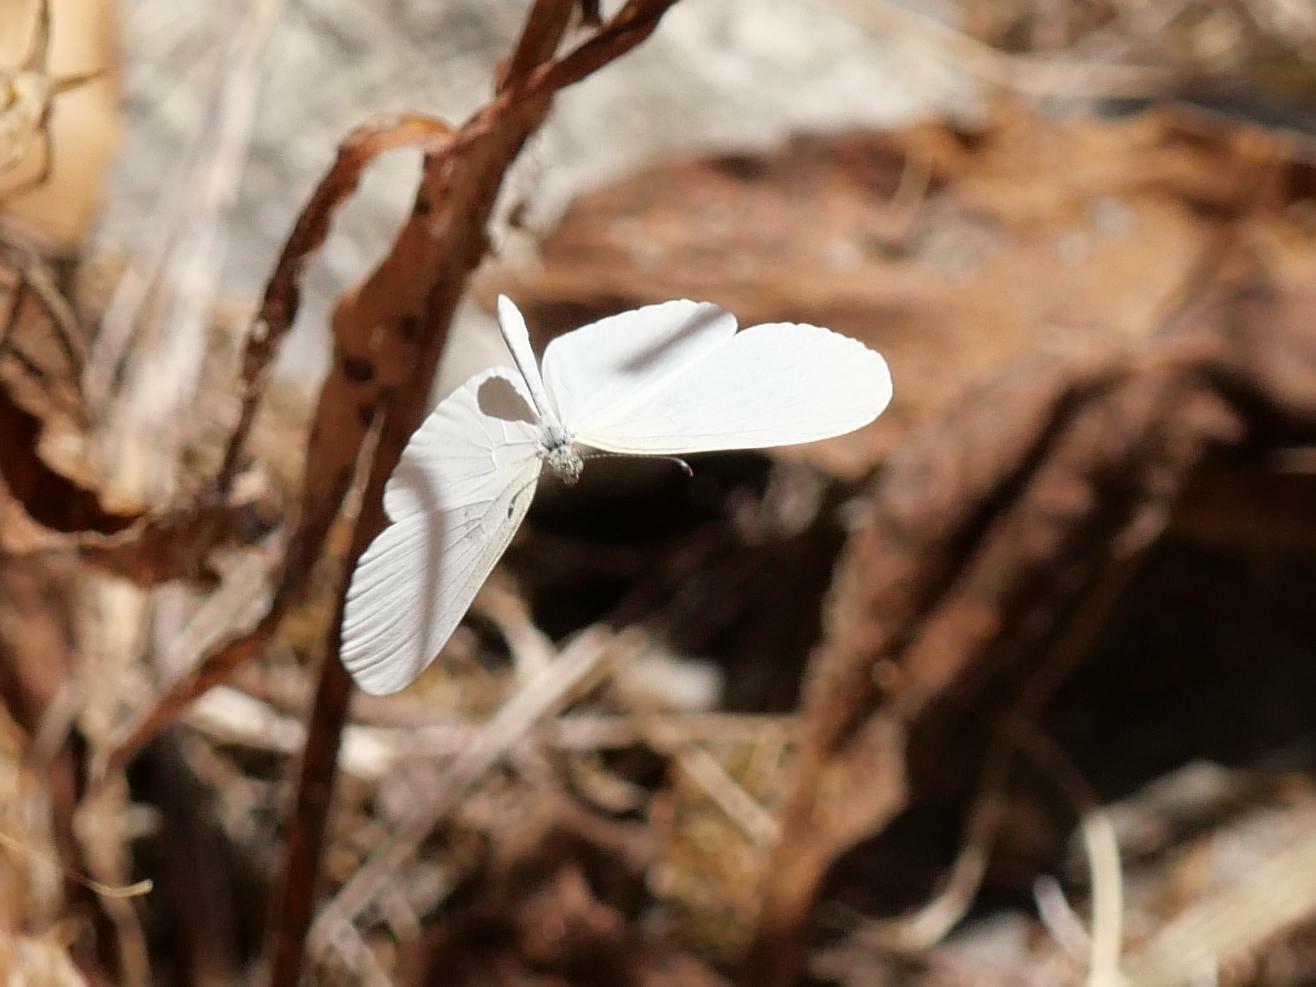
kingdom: Animalia
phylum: Arthropoda
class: Insecta
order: Lepidoptera
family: Pieridae
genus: Leptidea
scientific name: Leptidea sinapis
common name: Wood white
